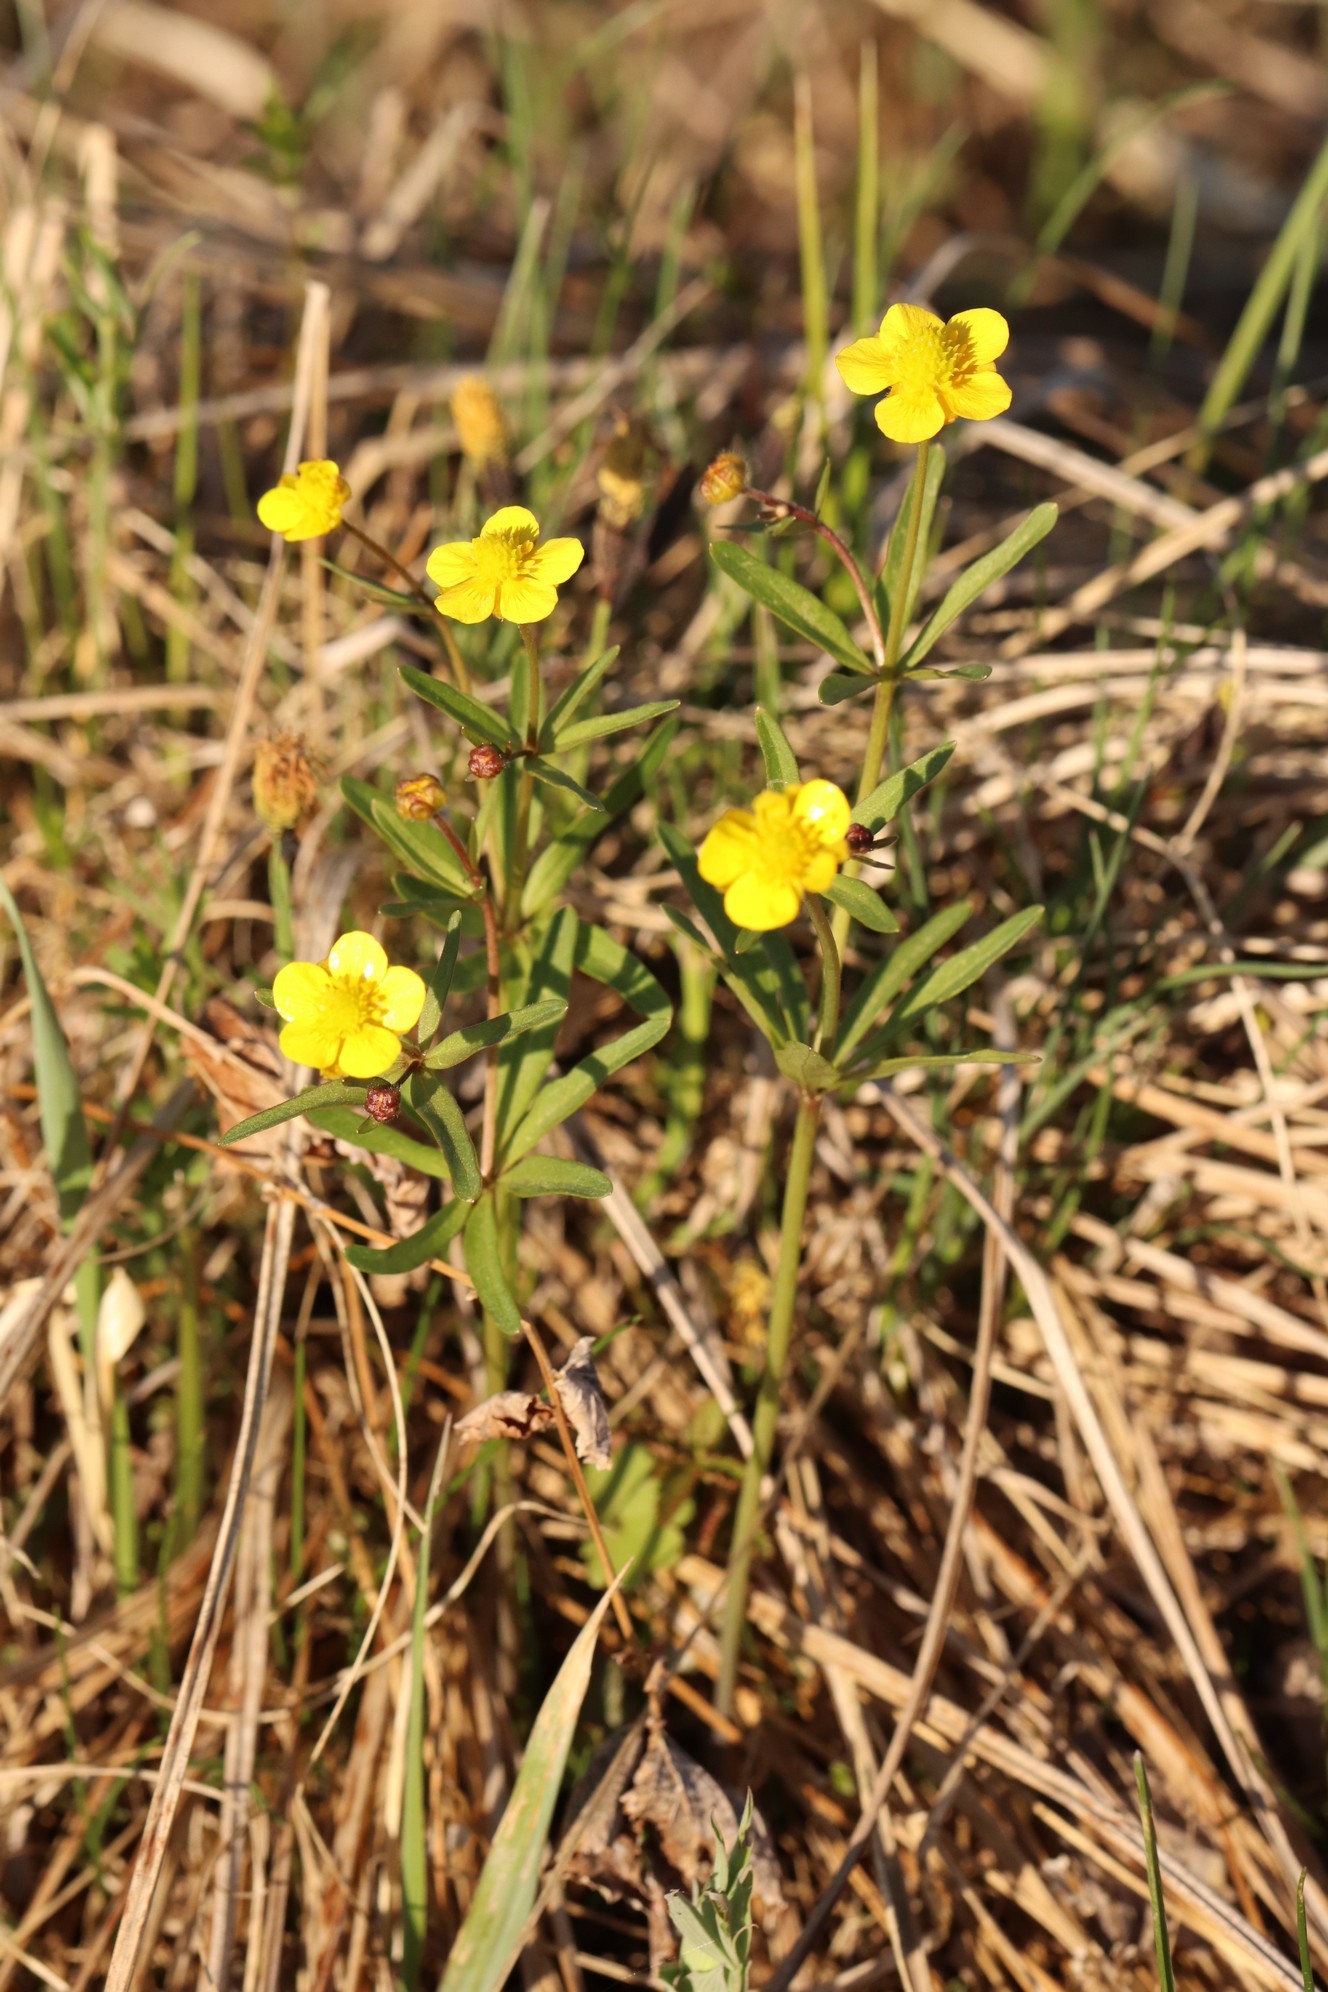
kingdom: Plantae
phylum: Tracheophyta
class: Magnoliopsida
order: Ranunculales
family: Ranunculaceae
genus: Ranunculus
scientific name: Ranunculus monophyllus
